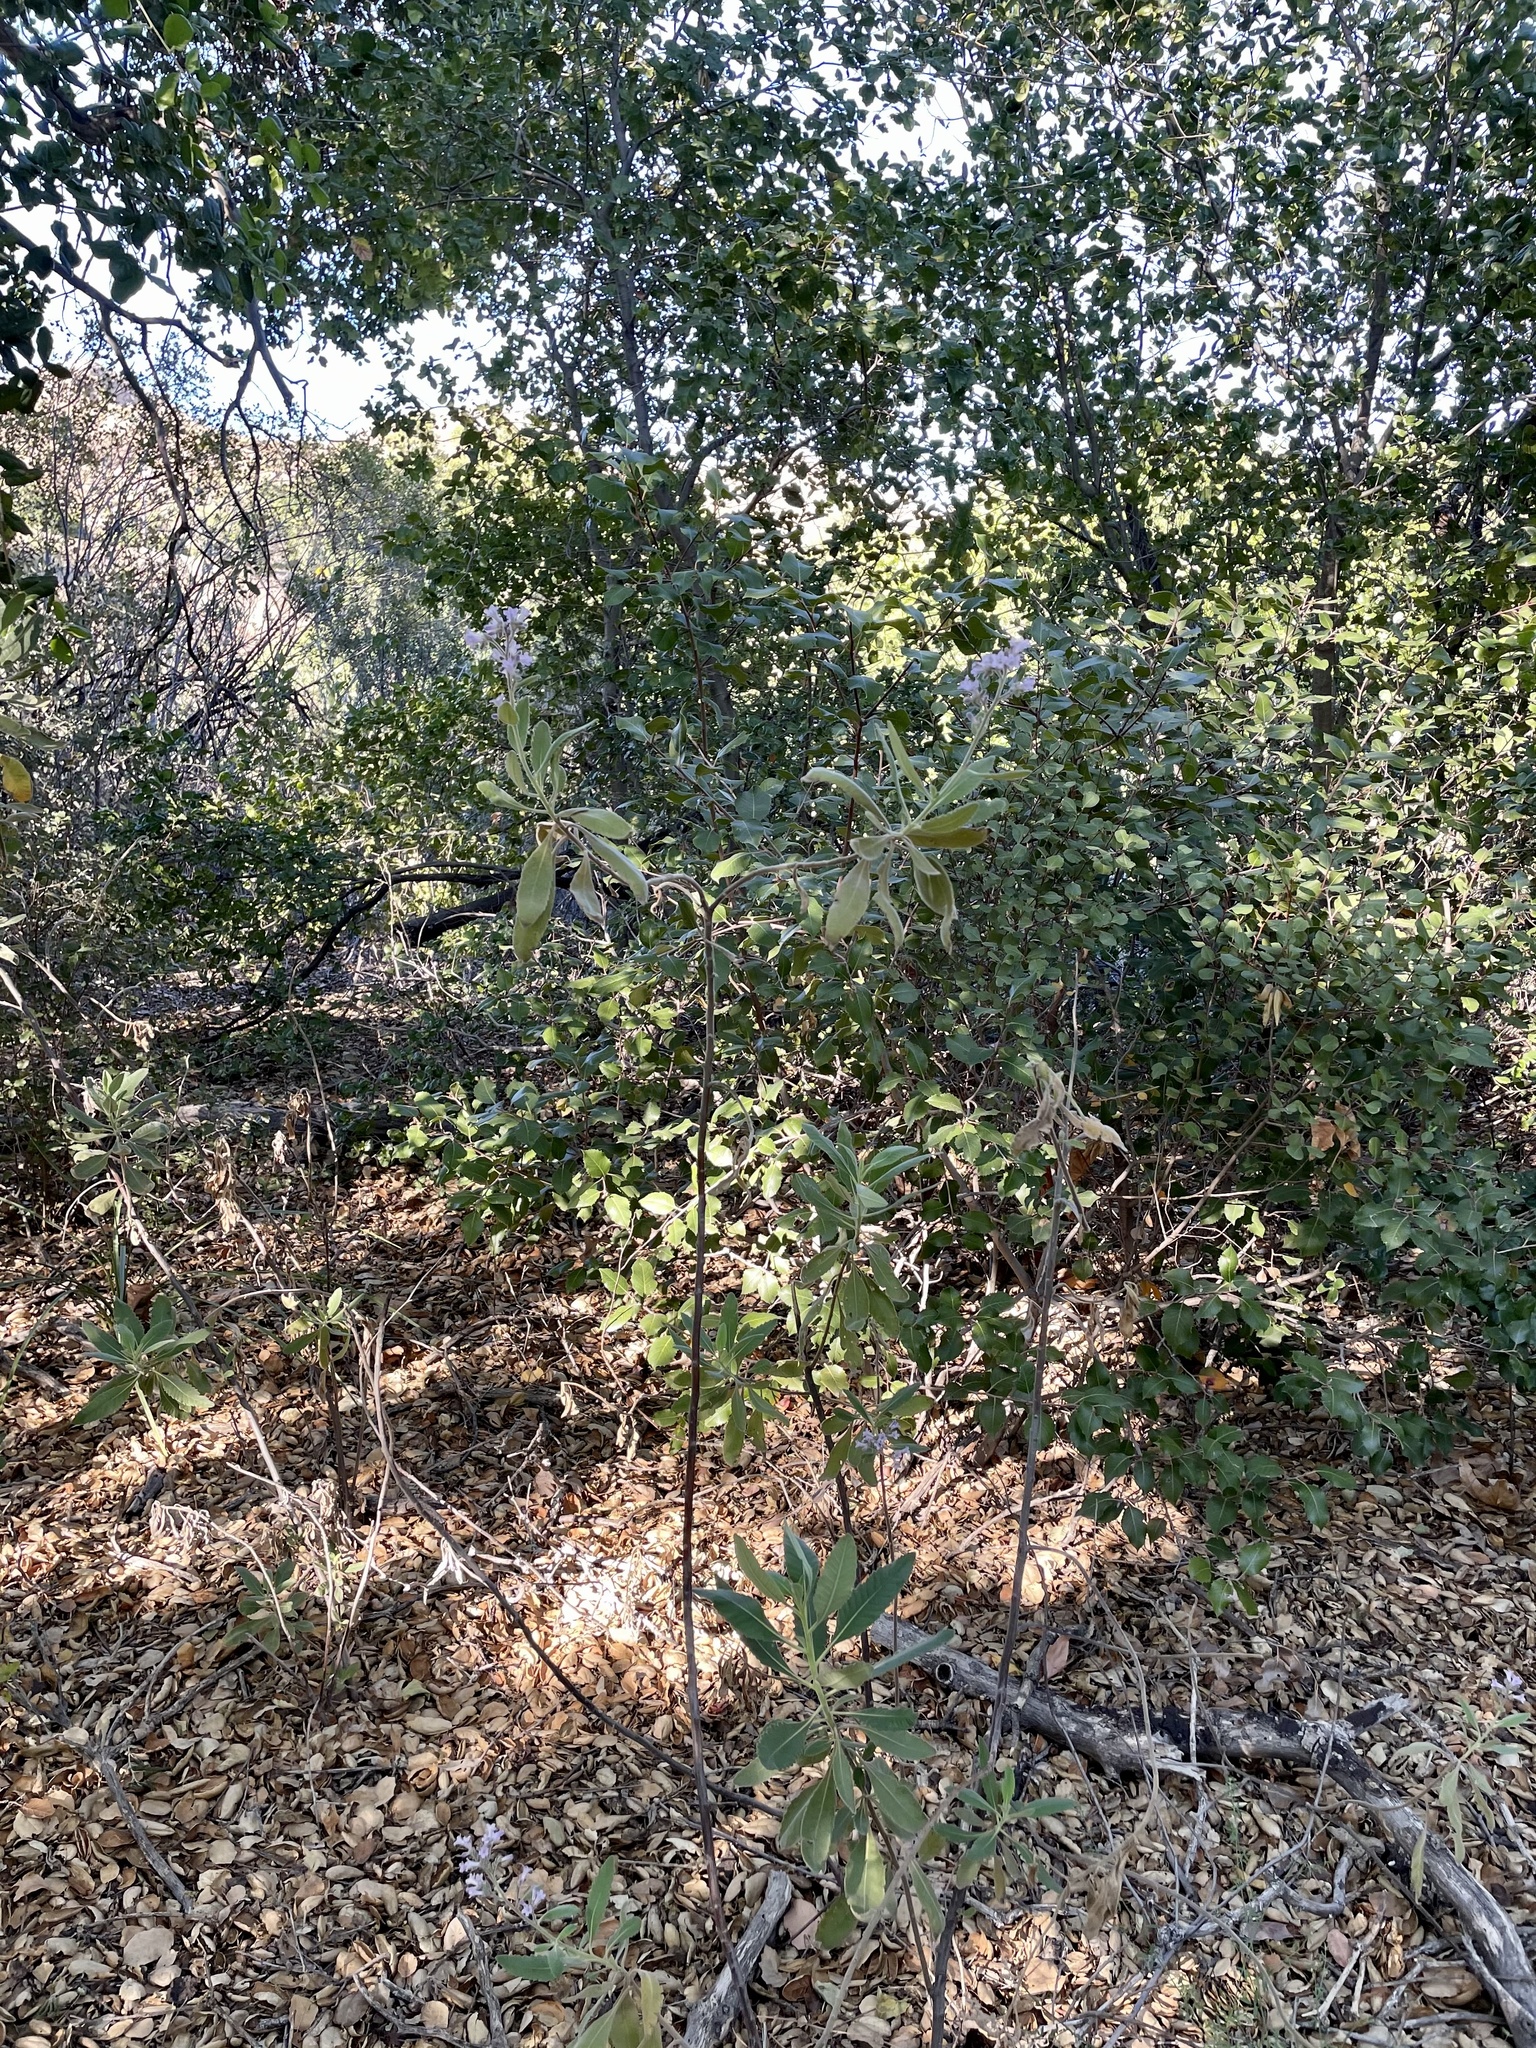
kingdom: Plantae
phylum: Tracheophyta
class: Magnoliopsida
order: Boraginales
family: Namaceae
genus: Eriodictyon
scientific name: Eriodictyon crassifolium
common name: Thick-leaf yerba-santa
